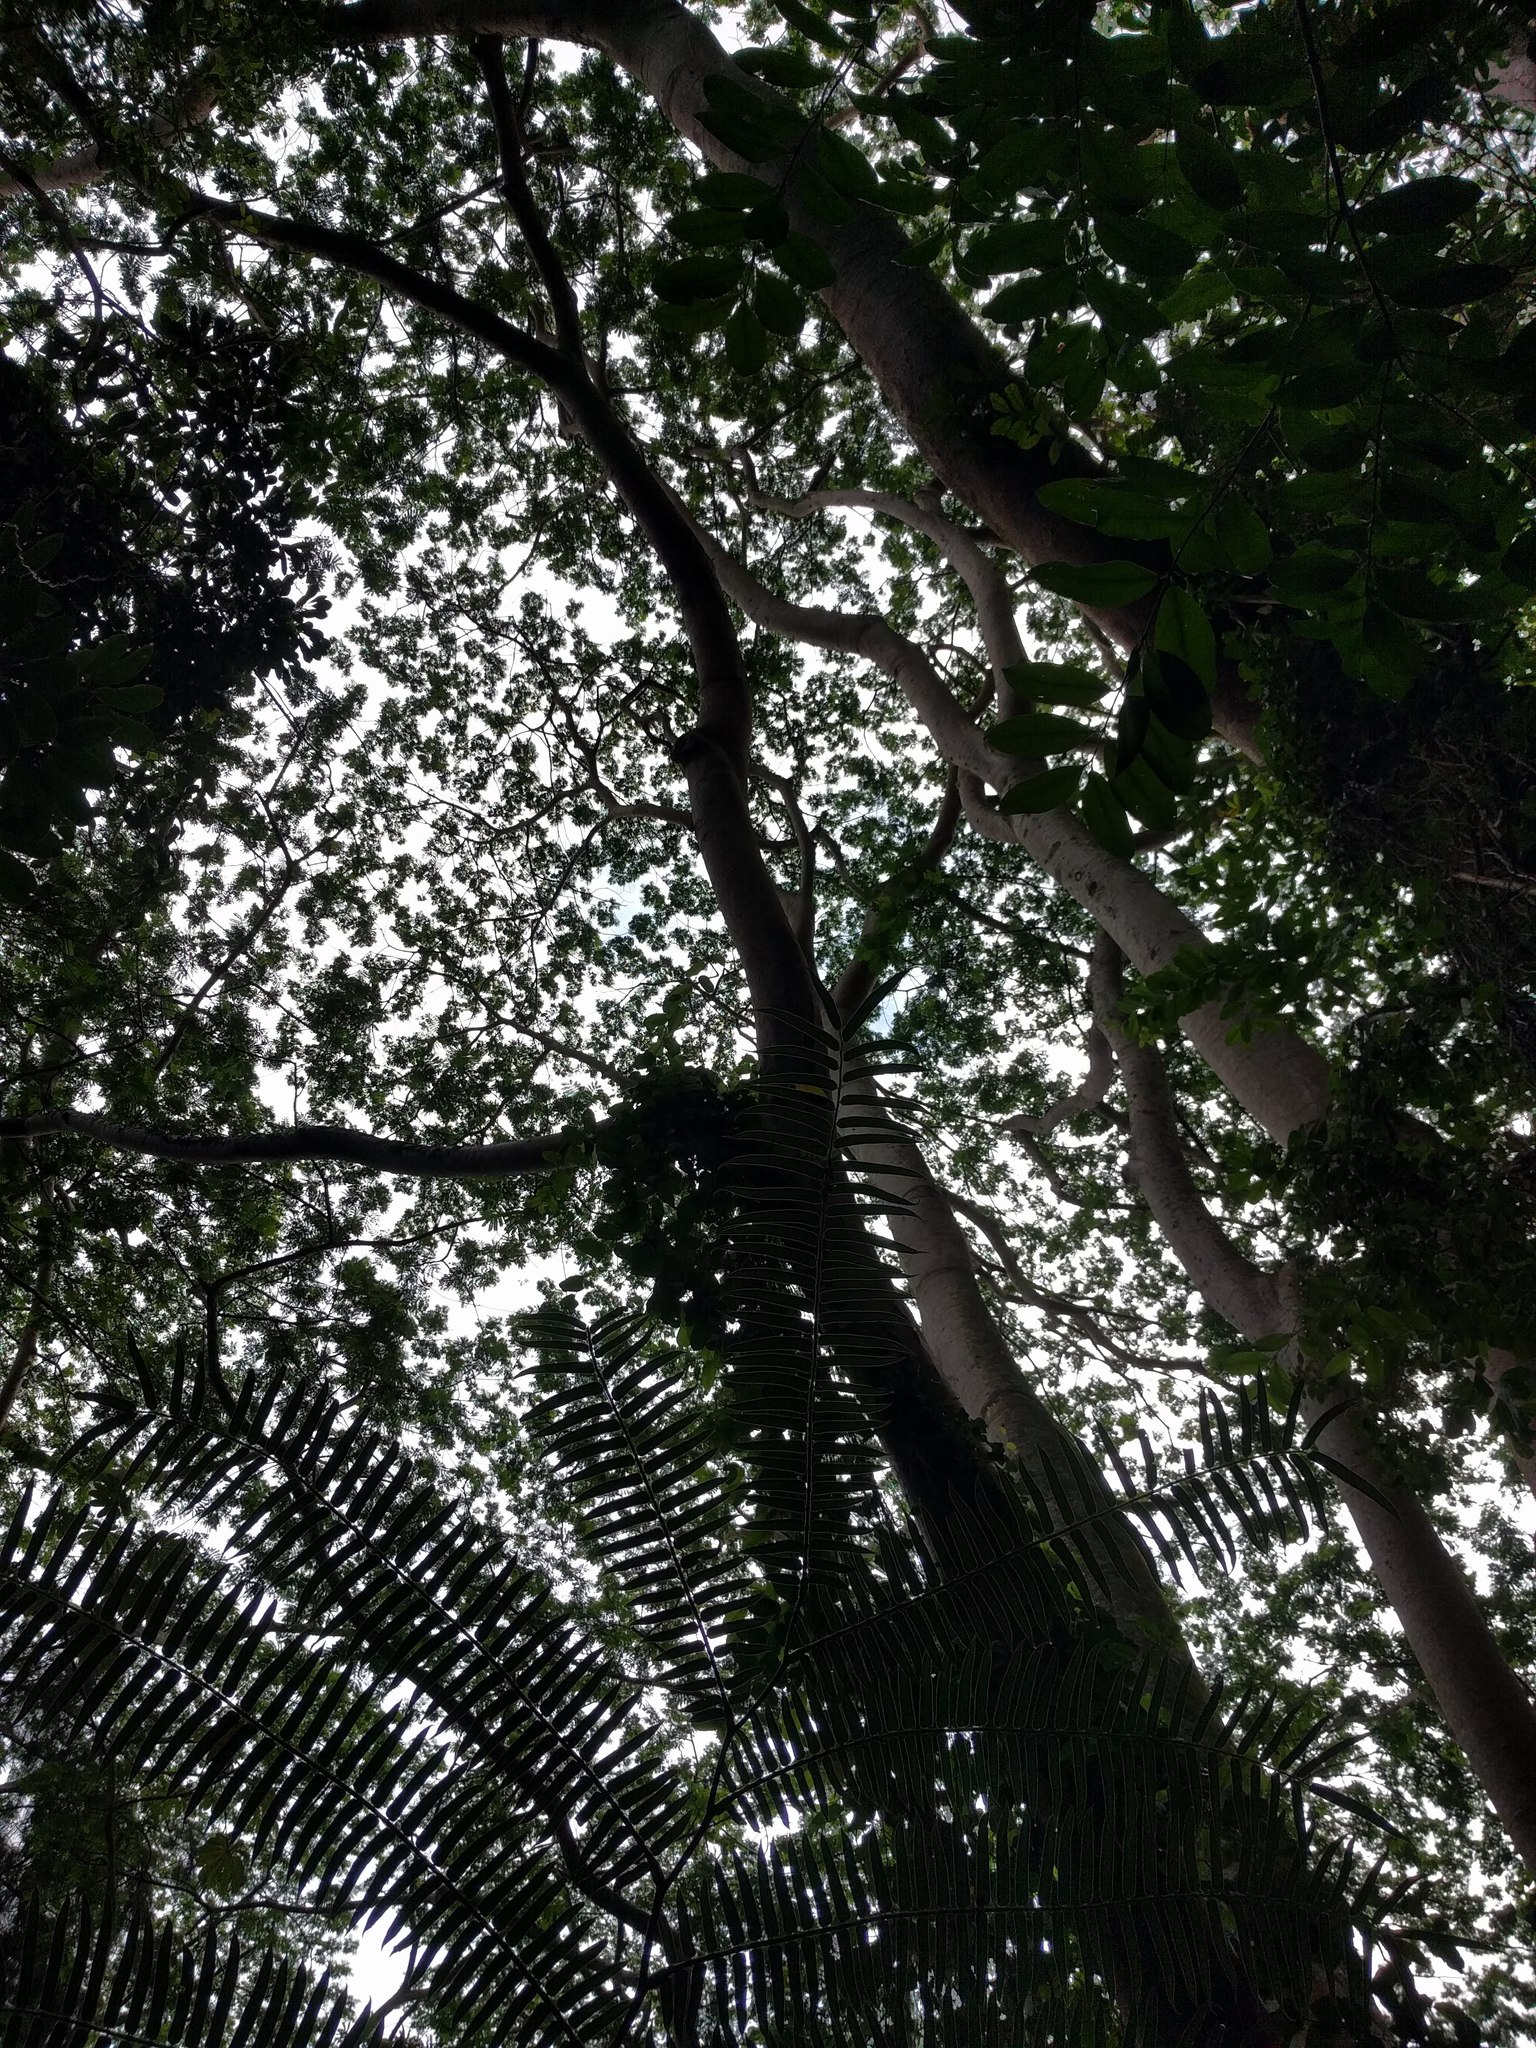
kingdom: Plantae
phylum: Tracheophyta
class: Magnoliopsida
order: Fabales
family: Fabaceae
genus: Falcataria
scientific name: Falcataria falcata
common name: Moluccan albizia
